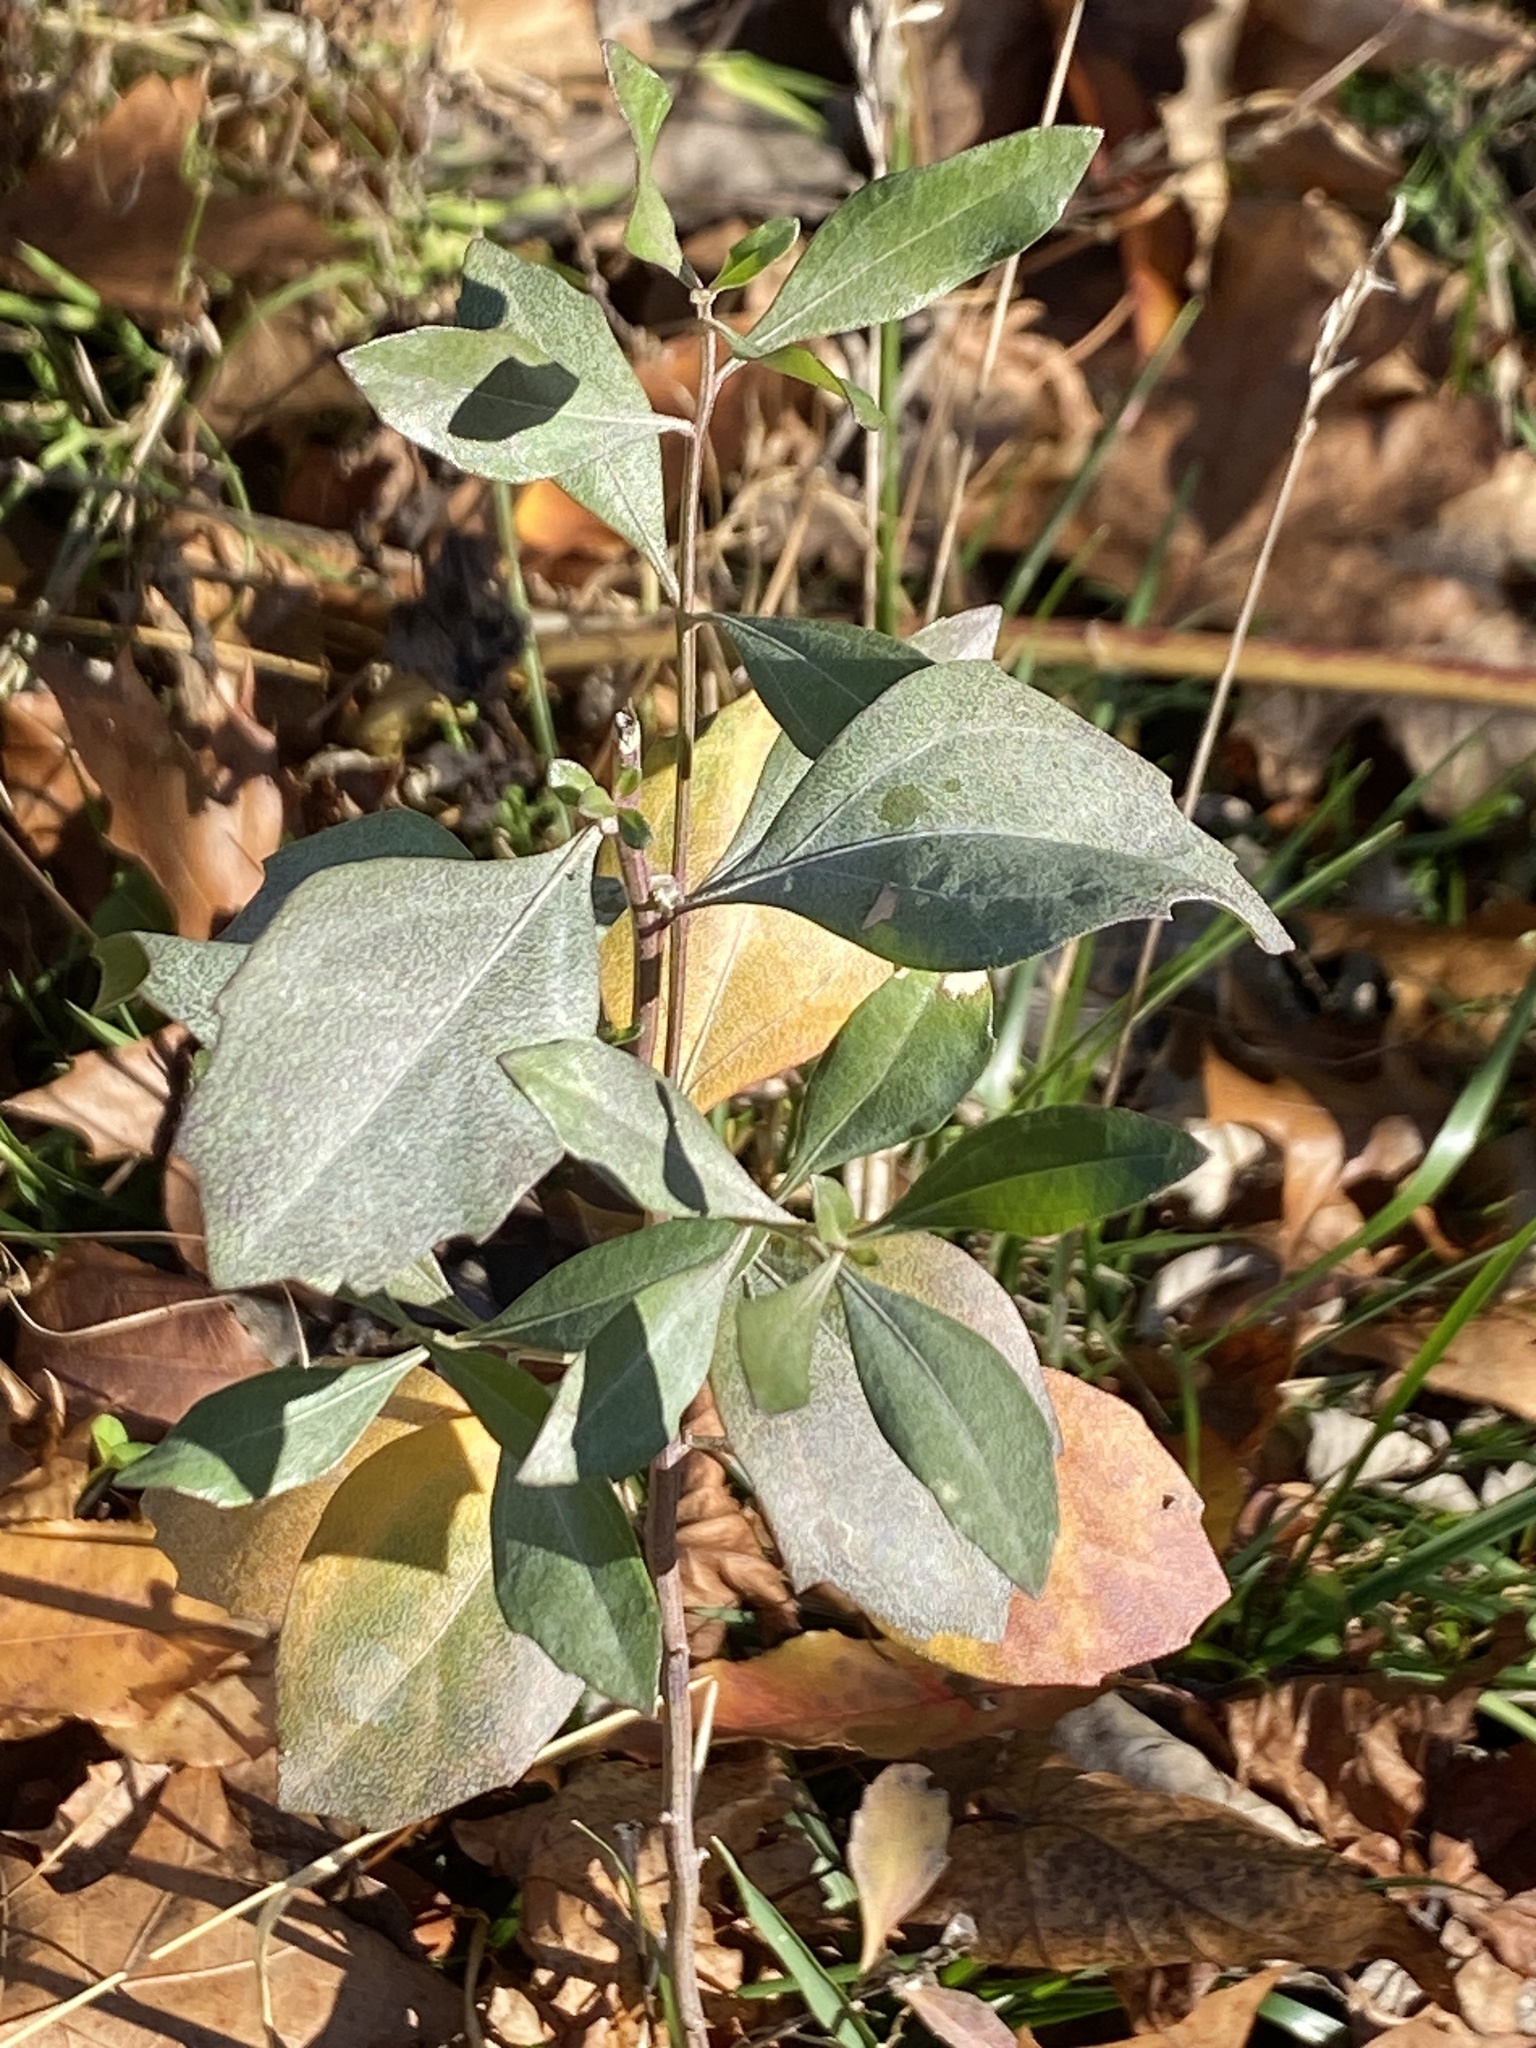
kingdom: Plantae
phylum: Tracheophyta
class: Magnoliopsida
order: Asterales
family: Asteraceae
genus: Baccharis
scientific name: Baccharis halimifolia
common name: Eastern baccharis
